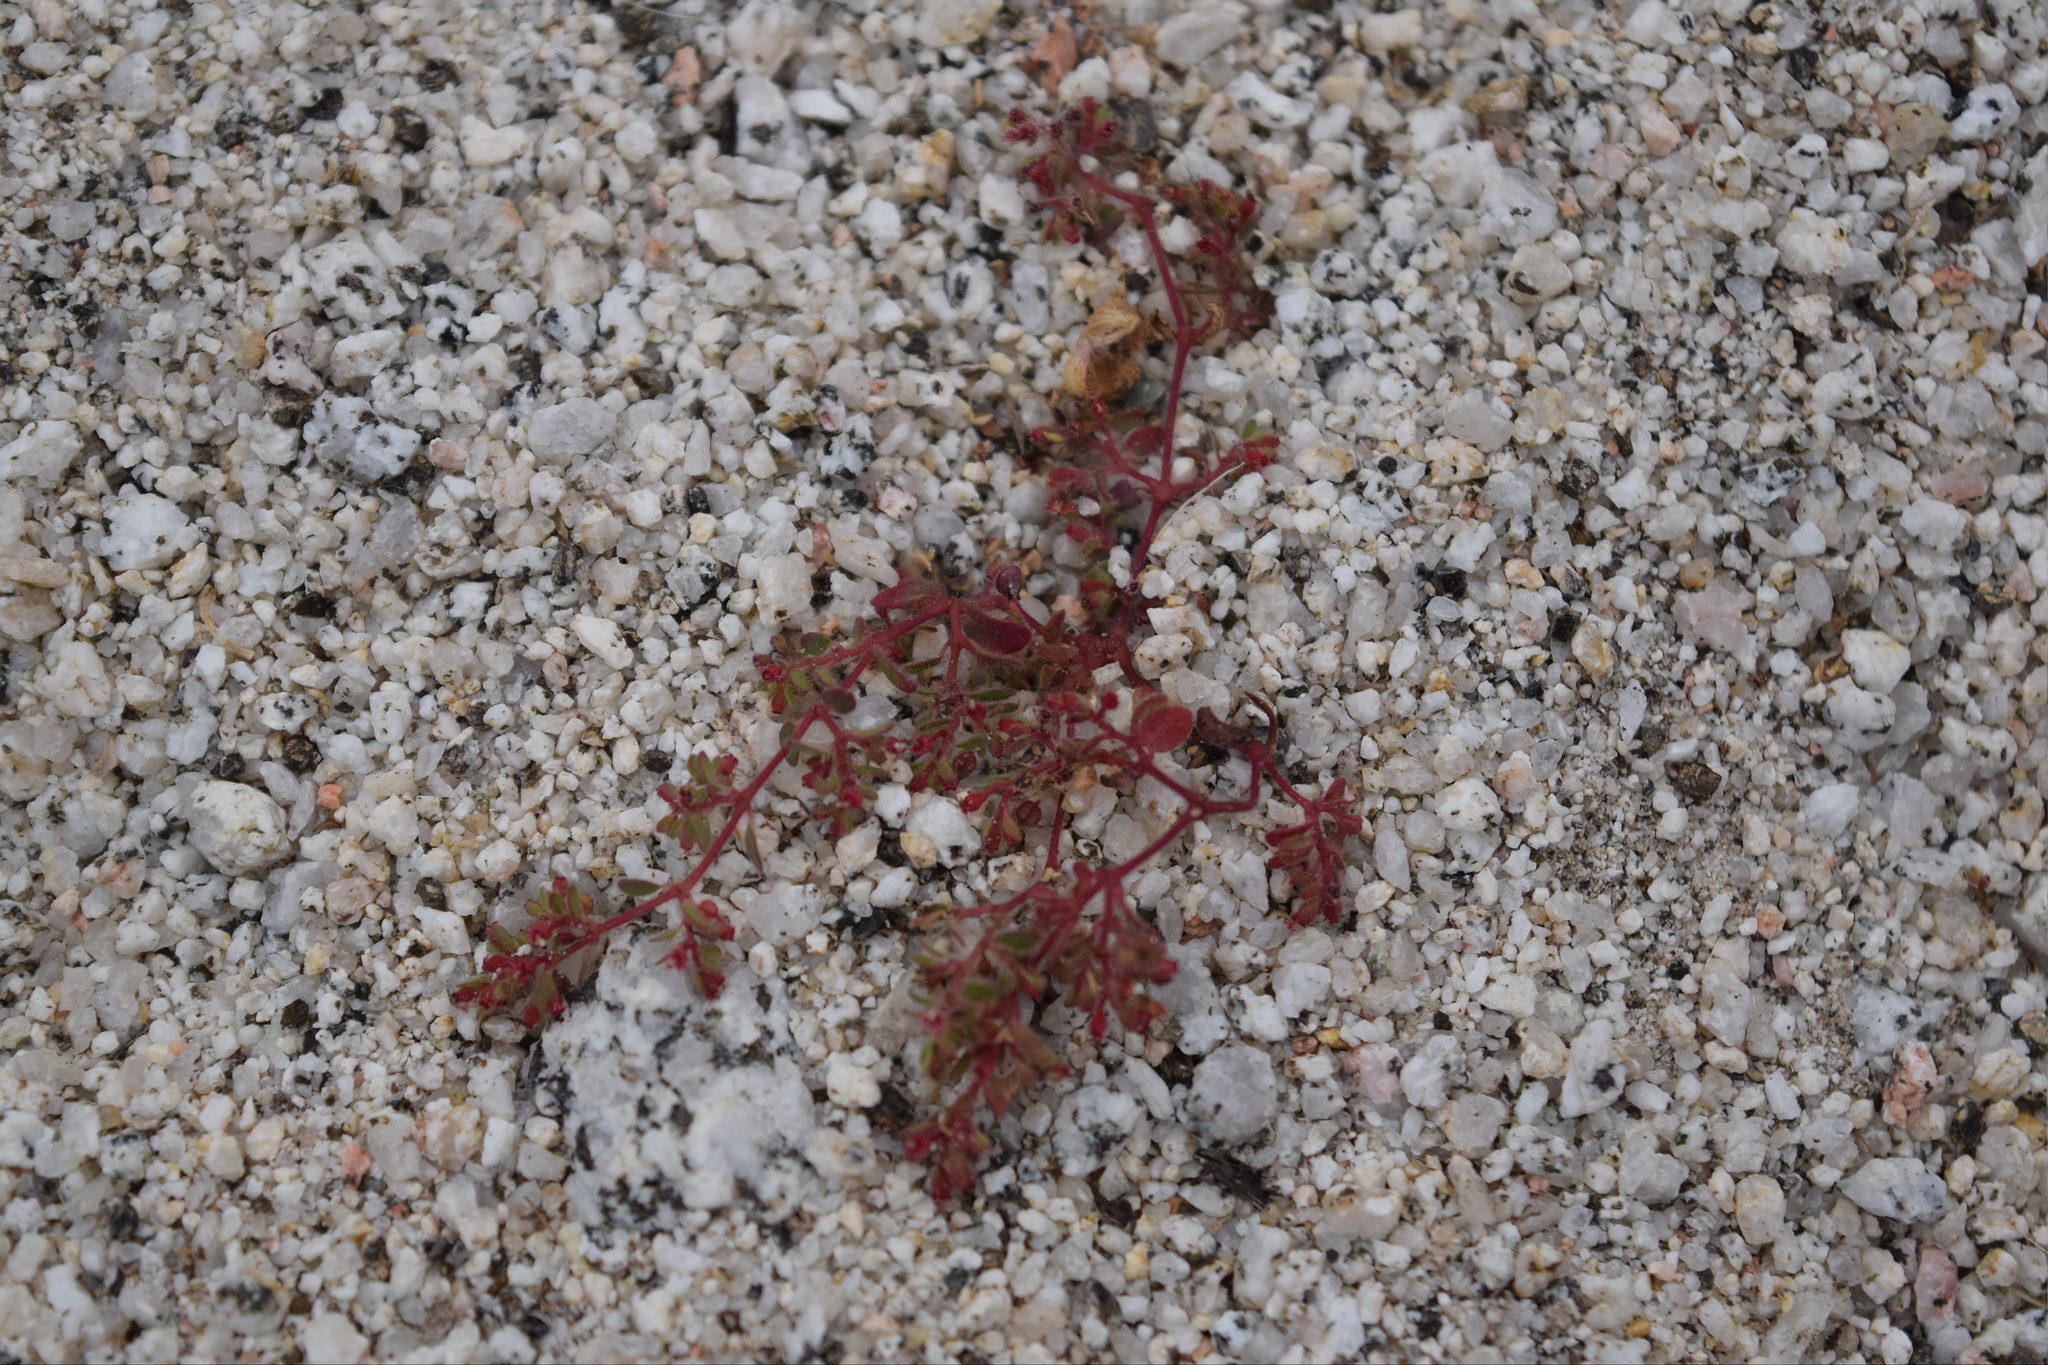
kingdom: Plantae
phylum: Tracheophyta
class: Magnoliopsida
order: Malpighiales
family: Euphorbiaceae
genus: Euphorbia
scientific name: Euphorbia setiloba
